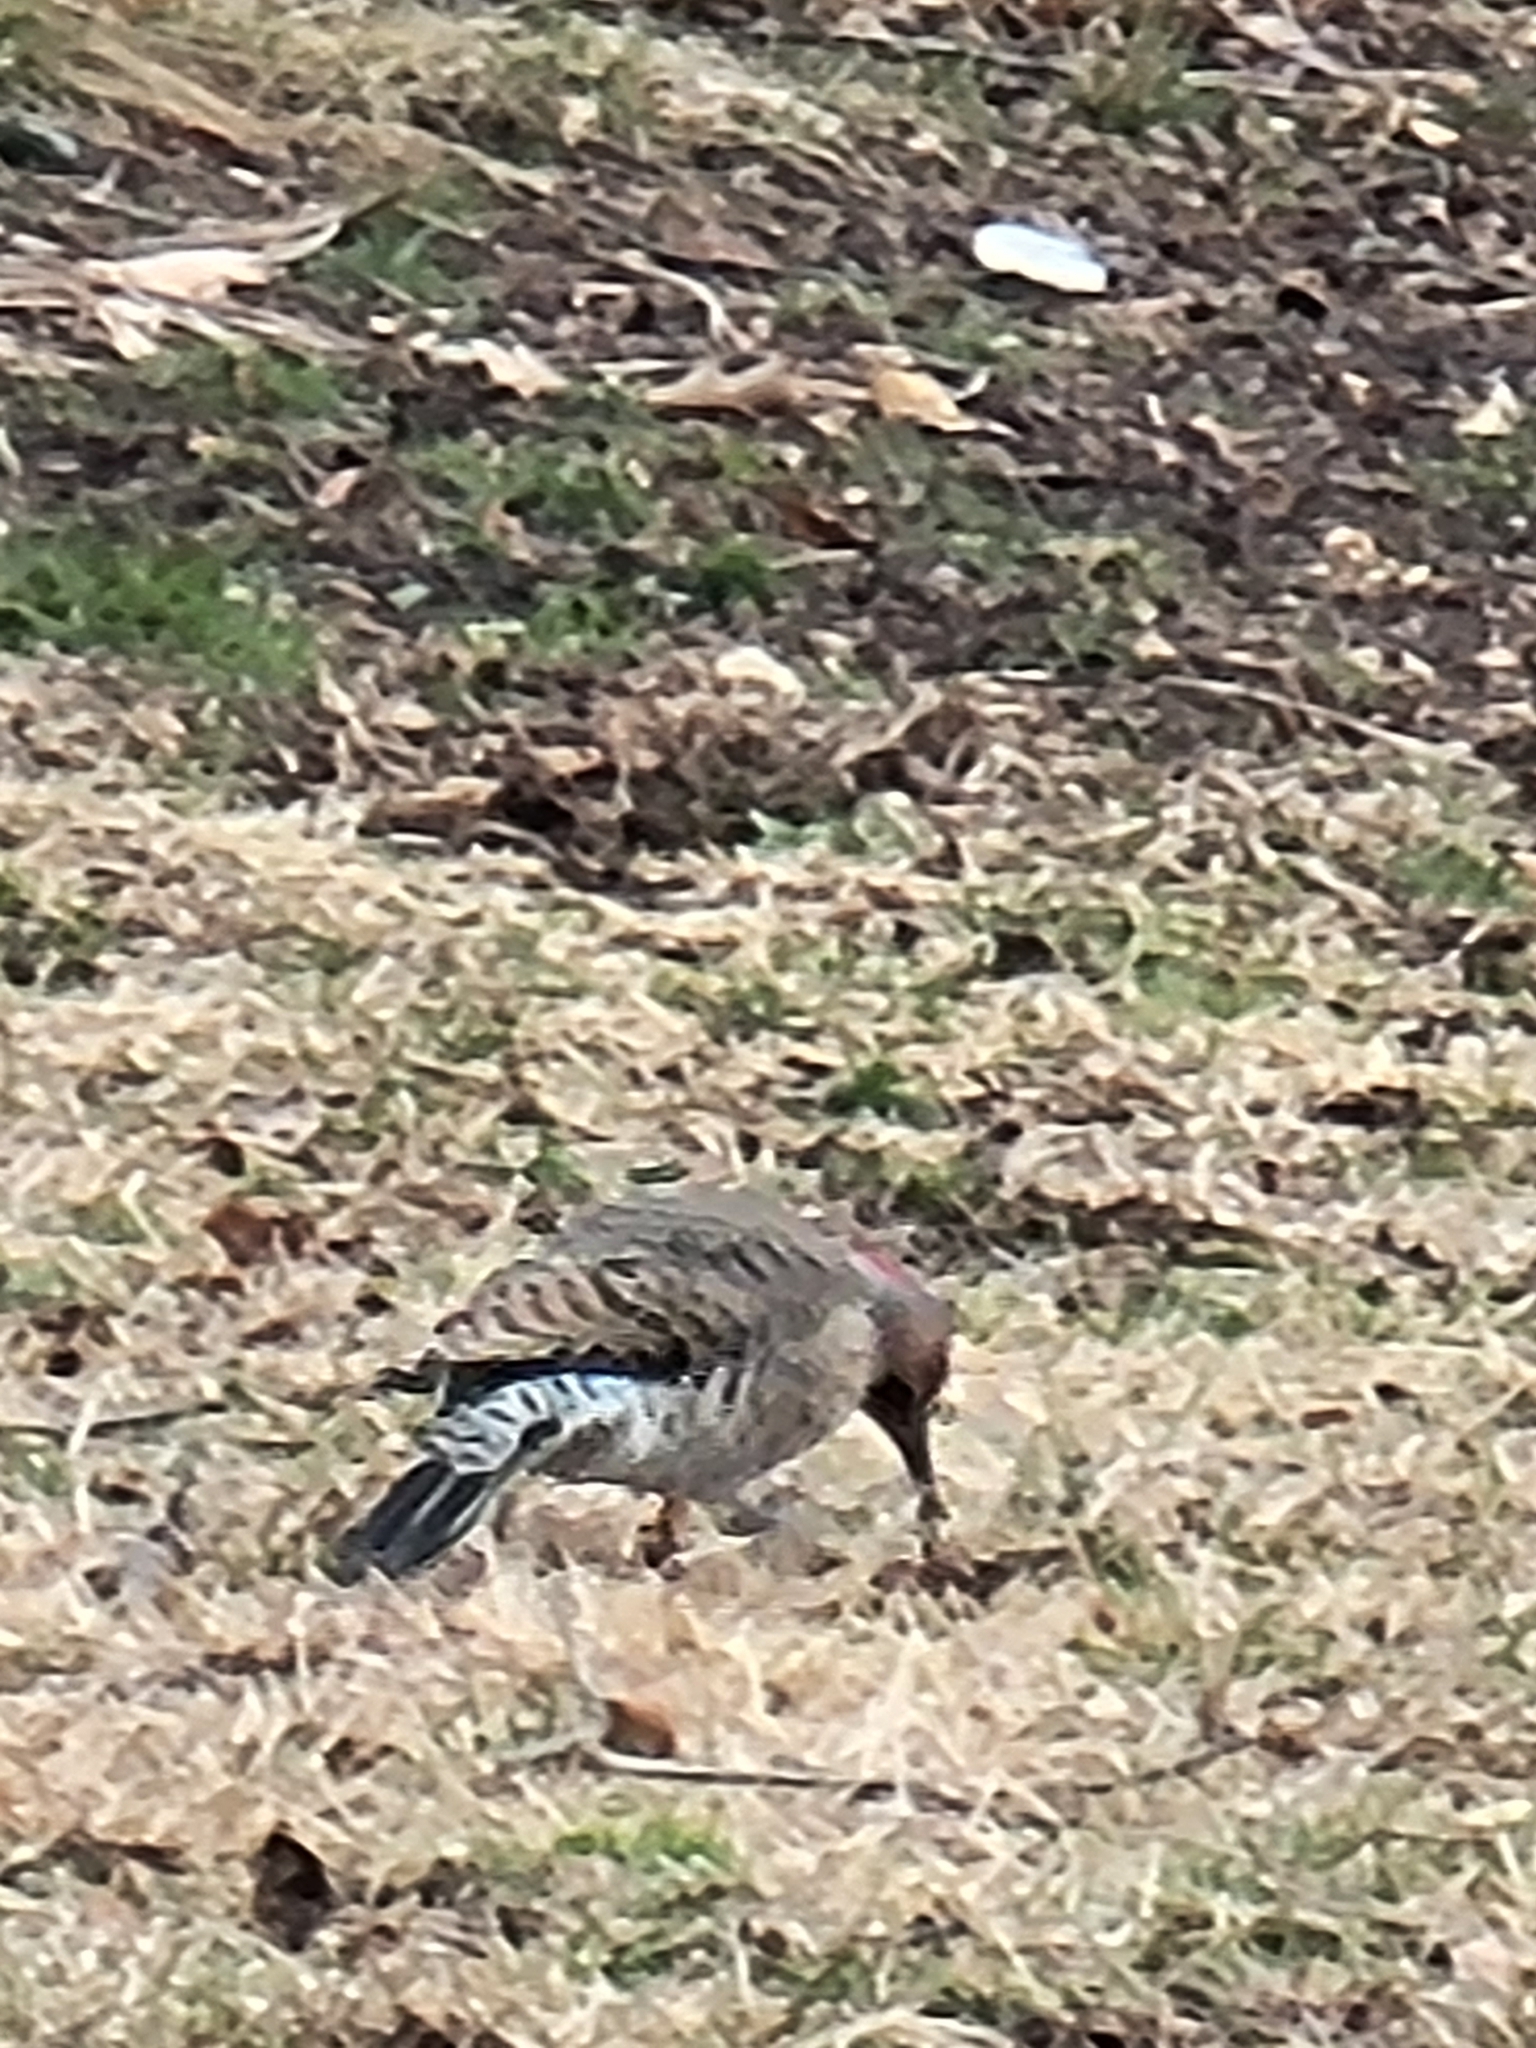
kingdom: Animalia
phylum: Chordata
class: Aves
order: Piciformes
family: Picidae
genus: Colaptes
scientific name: Colaptes auratus
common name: Northern flicker
